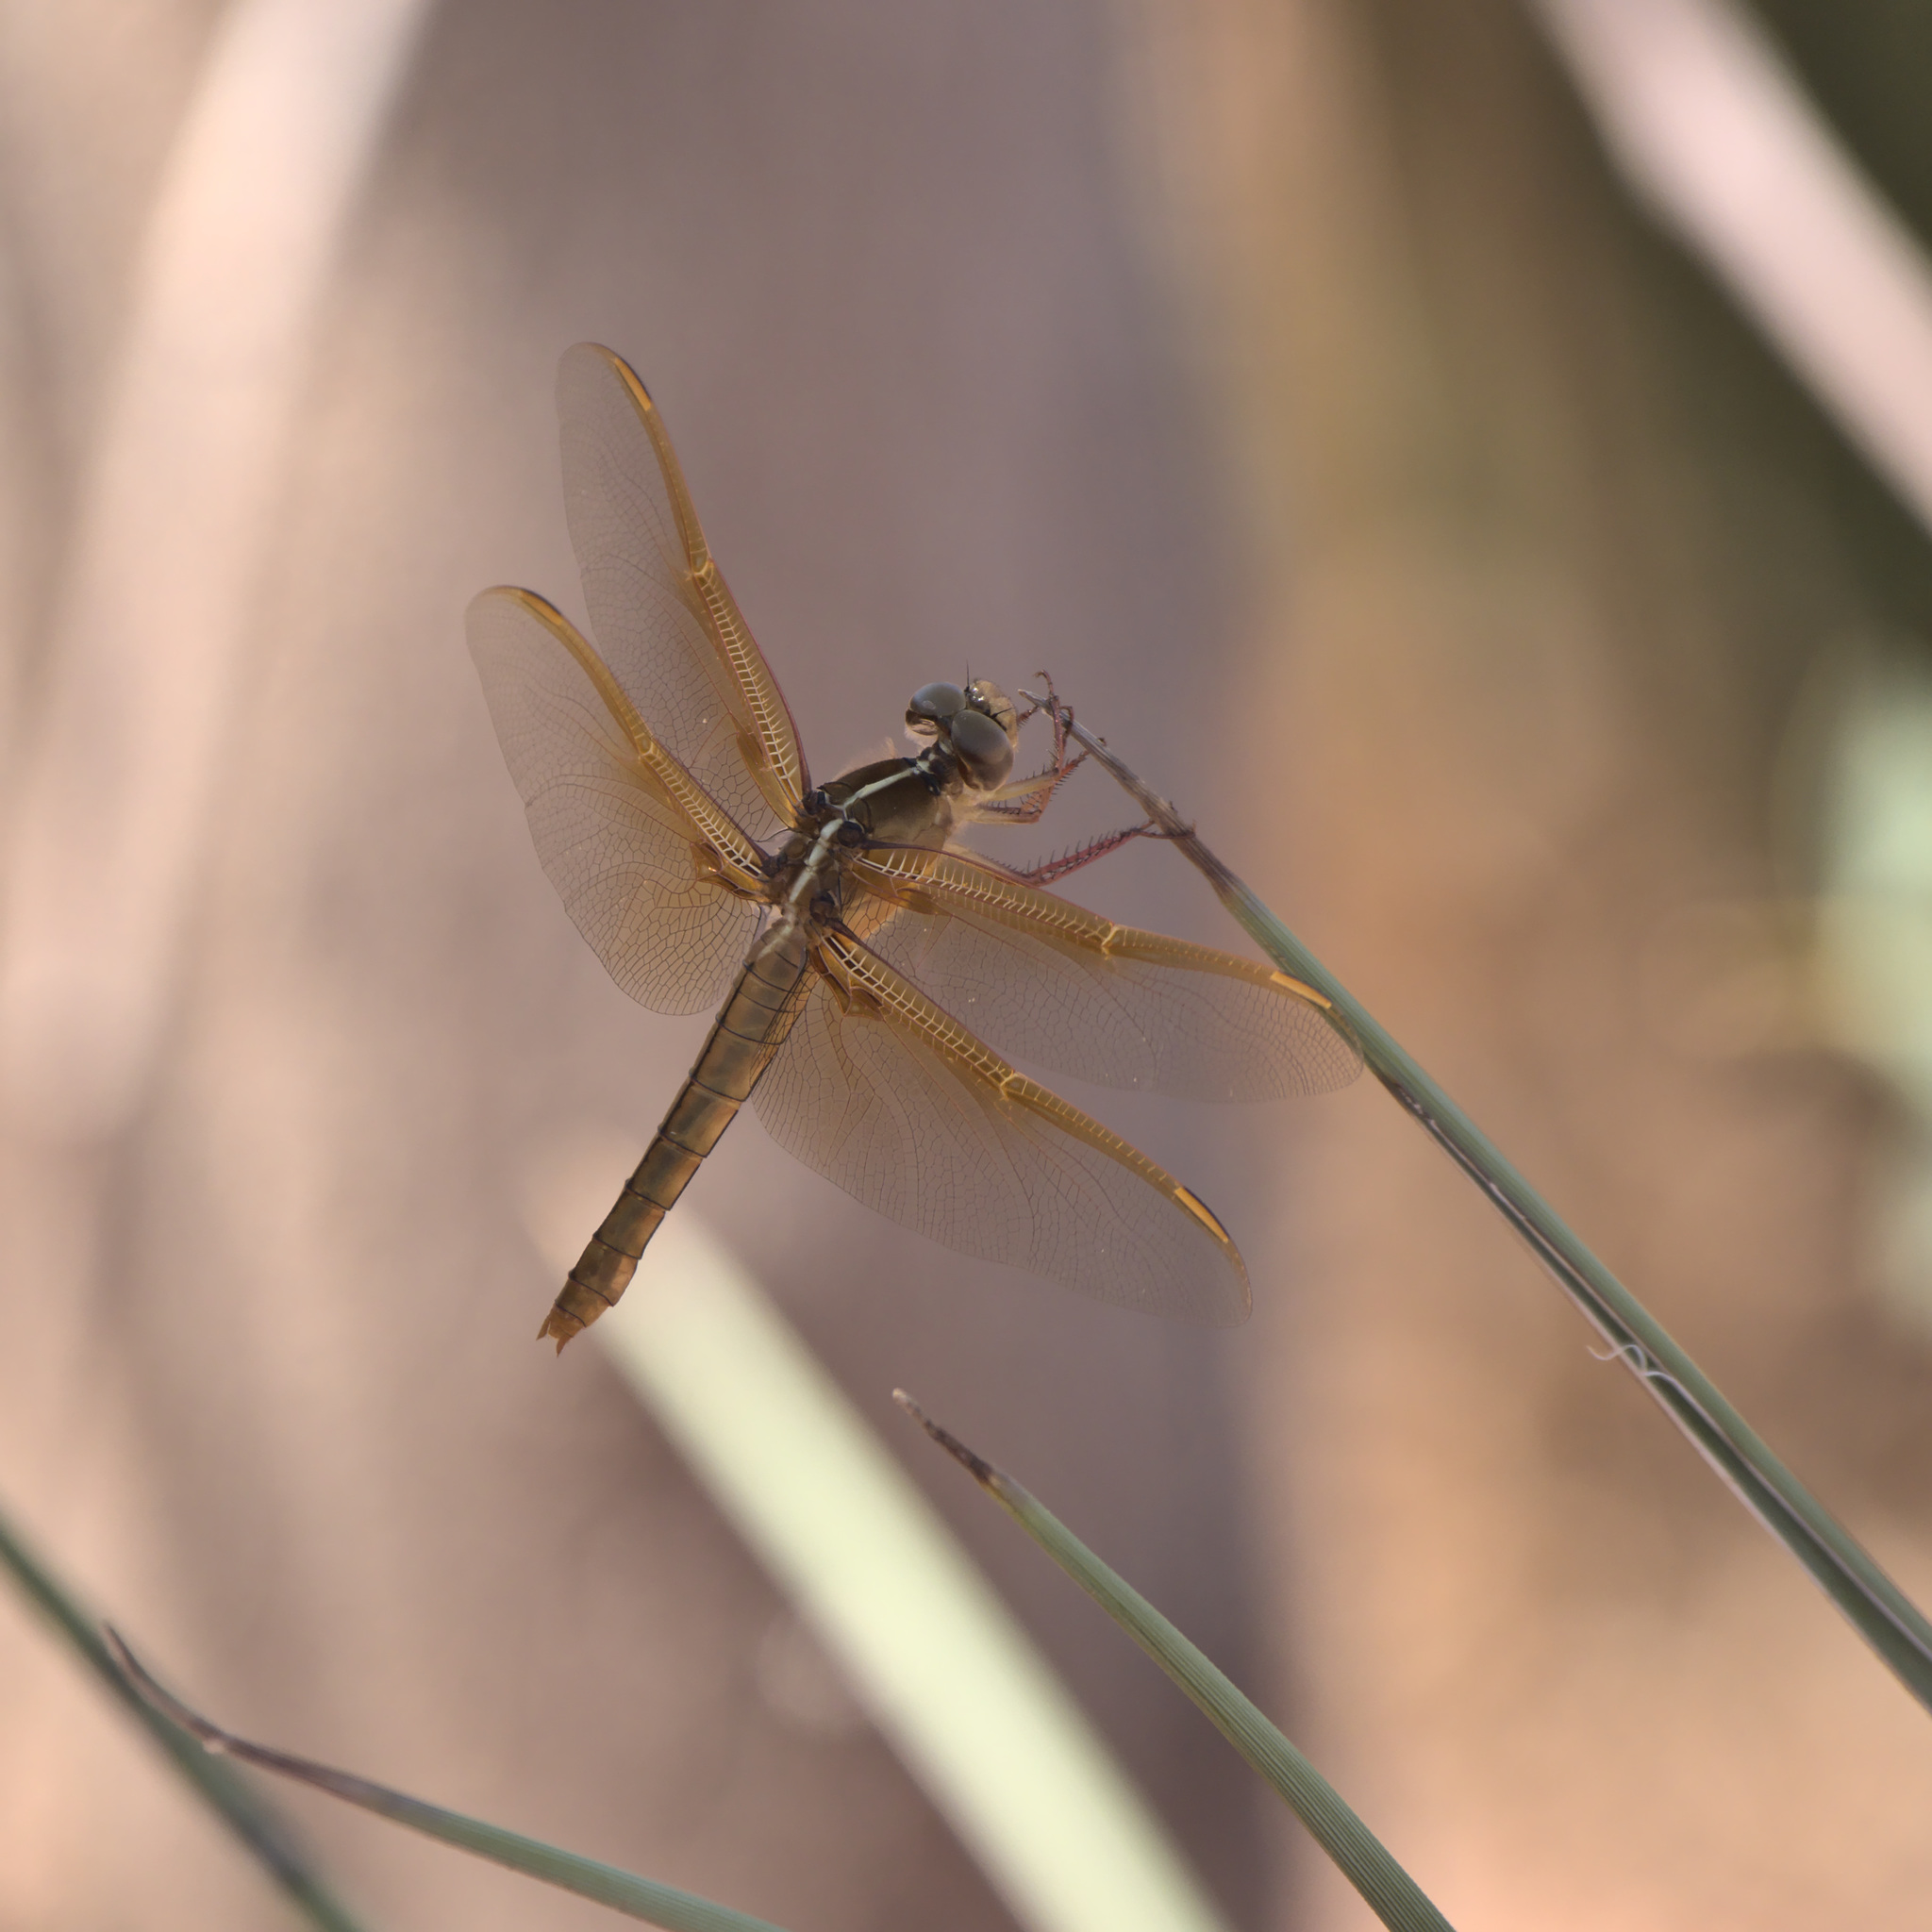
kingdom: Animalia
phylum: Arthropoda
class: Insecta
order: Odonata
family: Libellulidae
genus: Libellula
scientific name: Libellula saturata
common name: Flame skimmer
